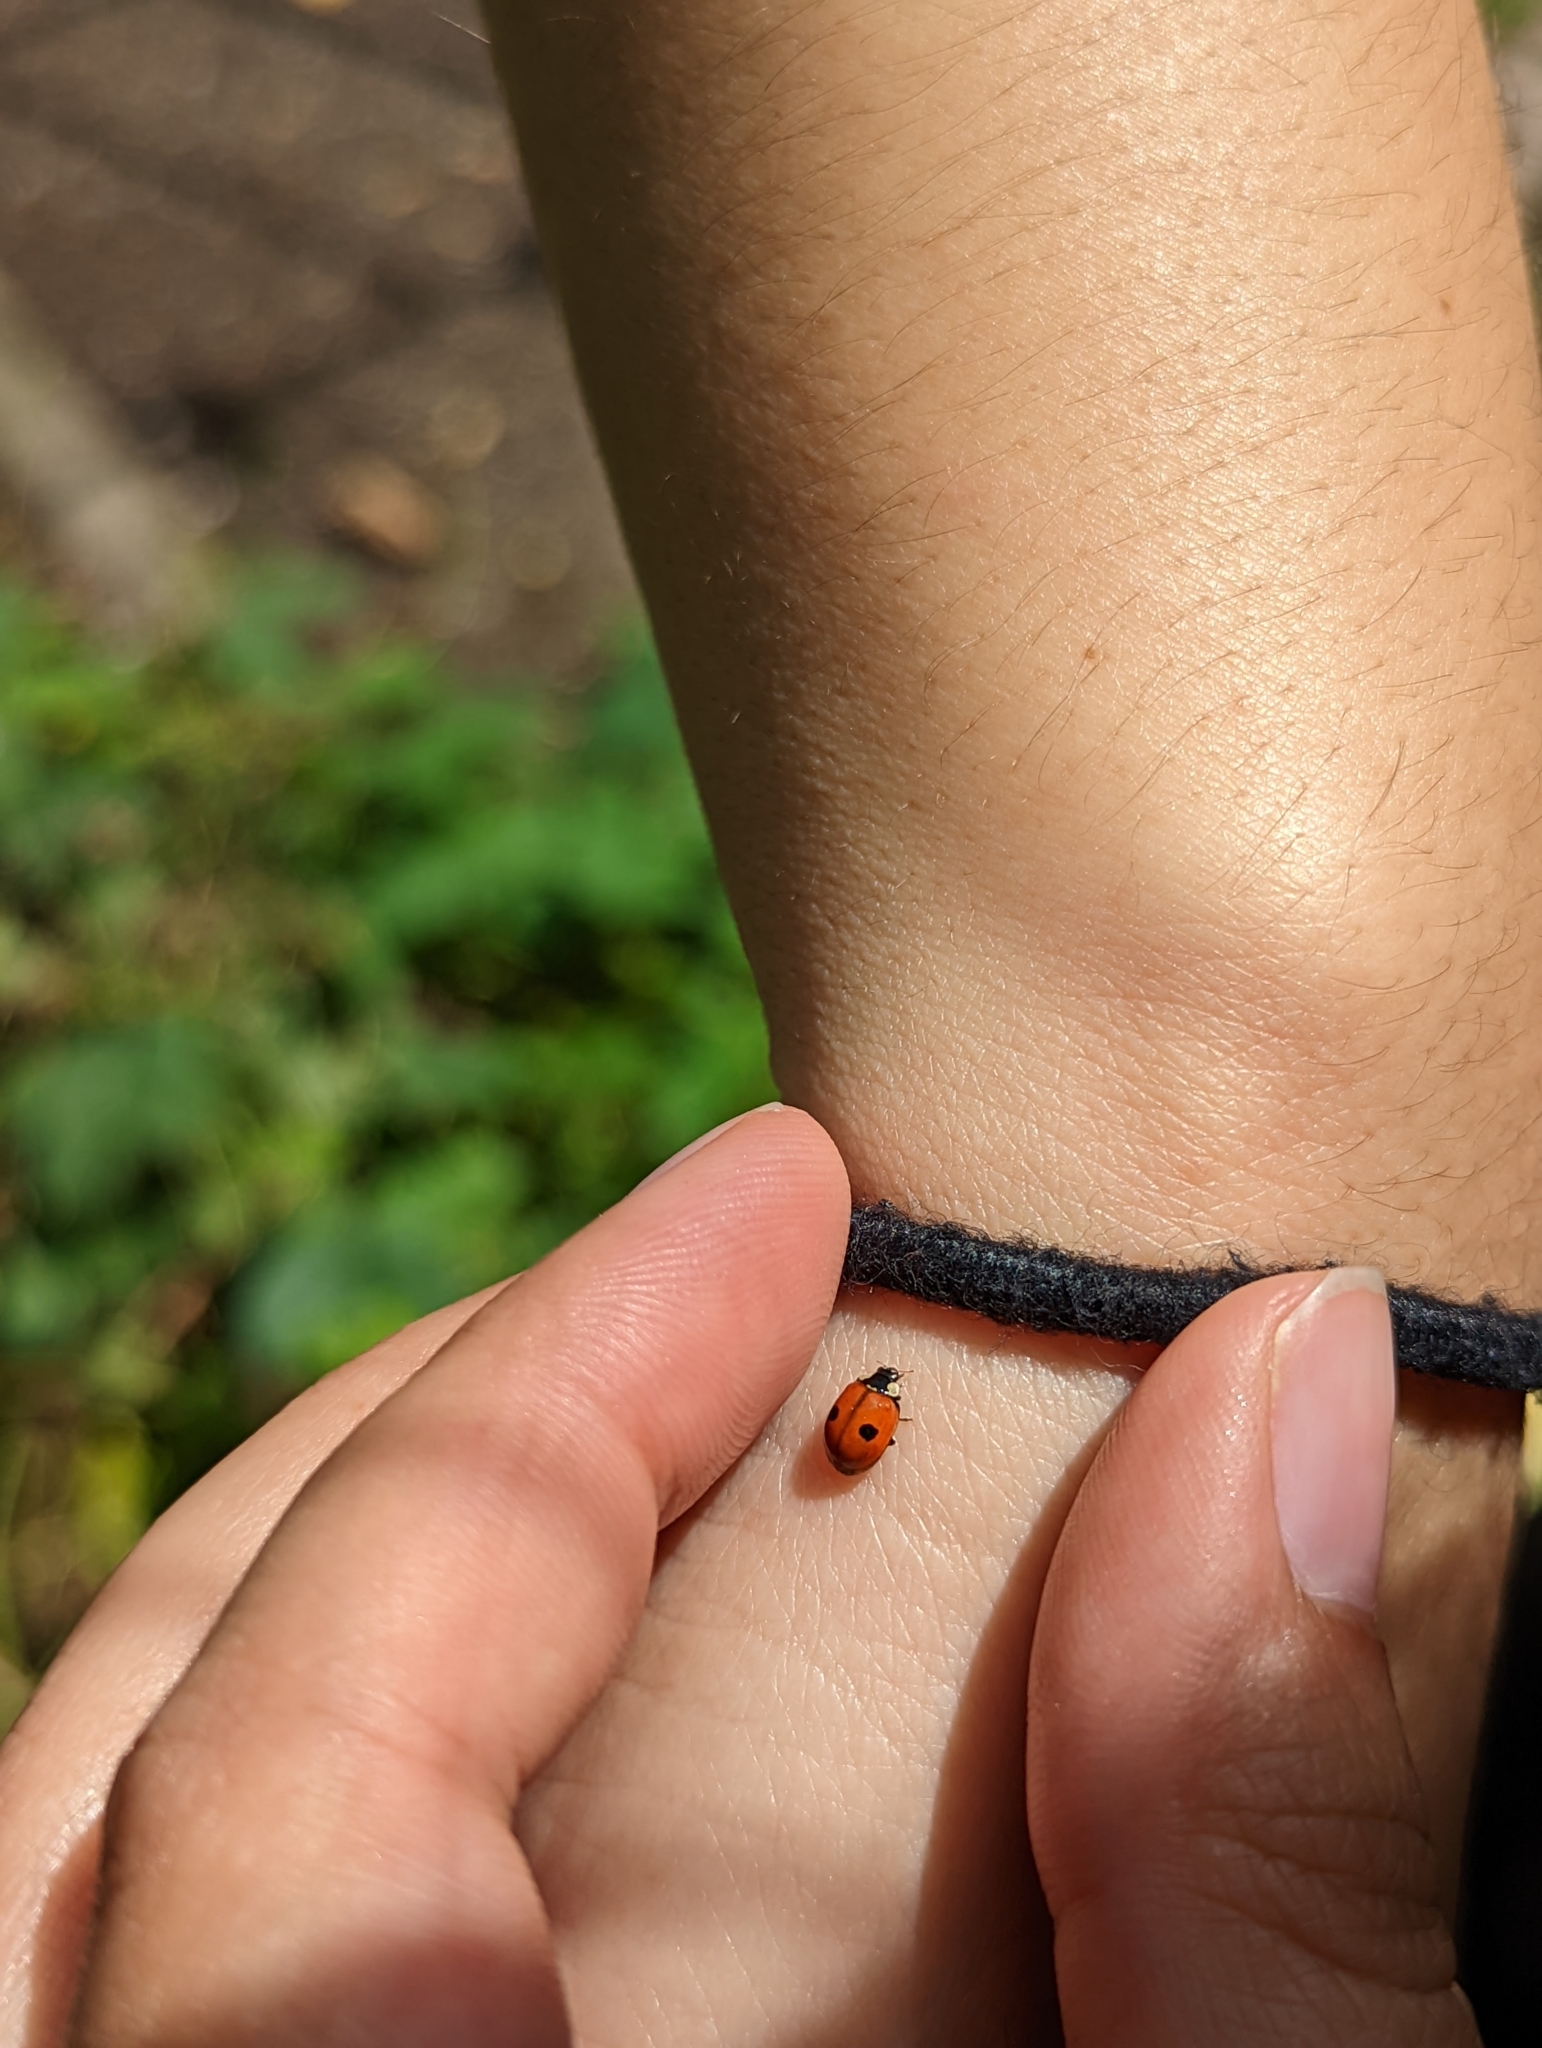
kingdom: Animalia
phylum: Arthropoda
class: Insecta
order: Coleoptera
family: Coccinellidae
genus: Adalia
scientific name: Adalia bipunctata
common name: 2-spot ladybird
